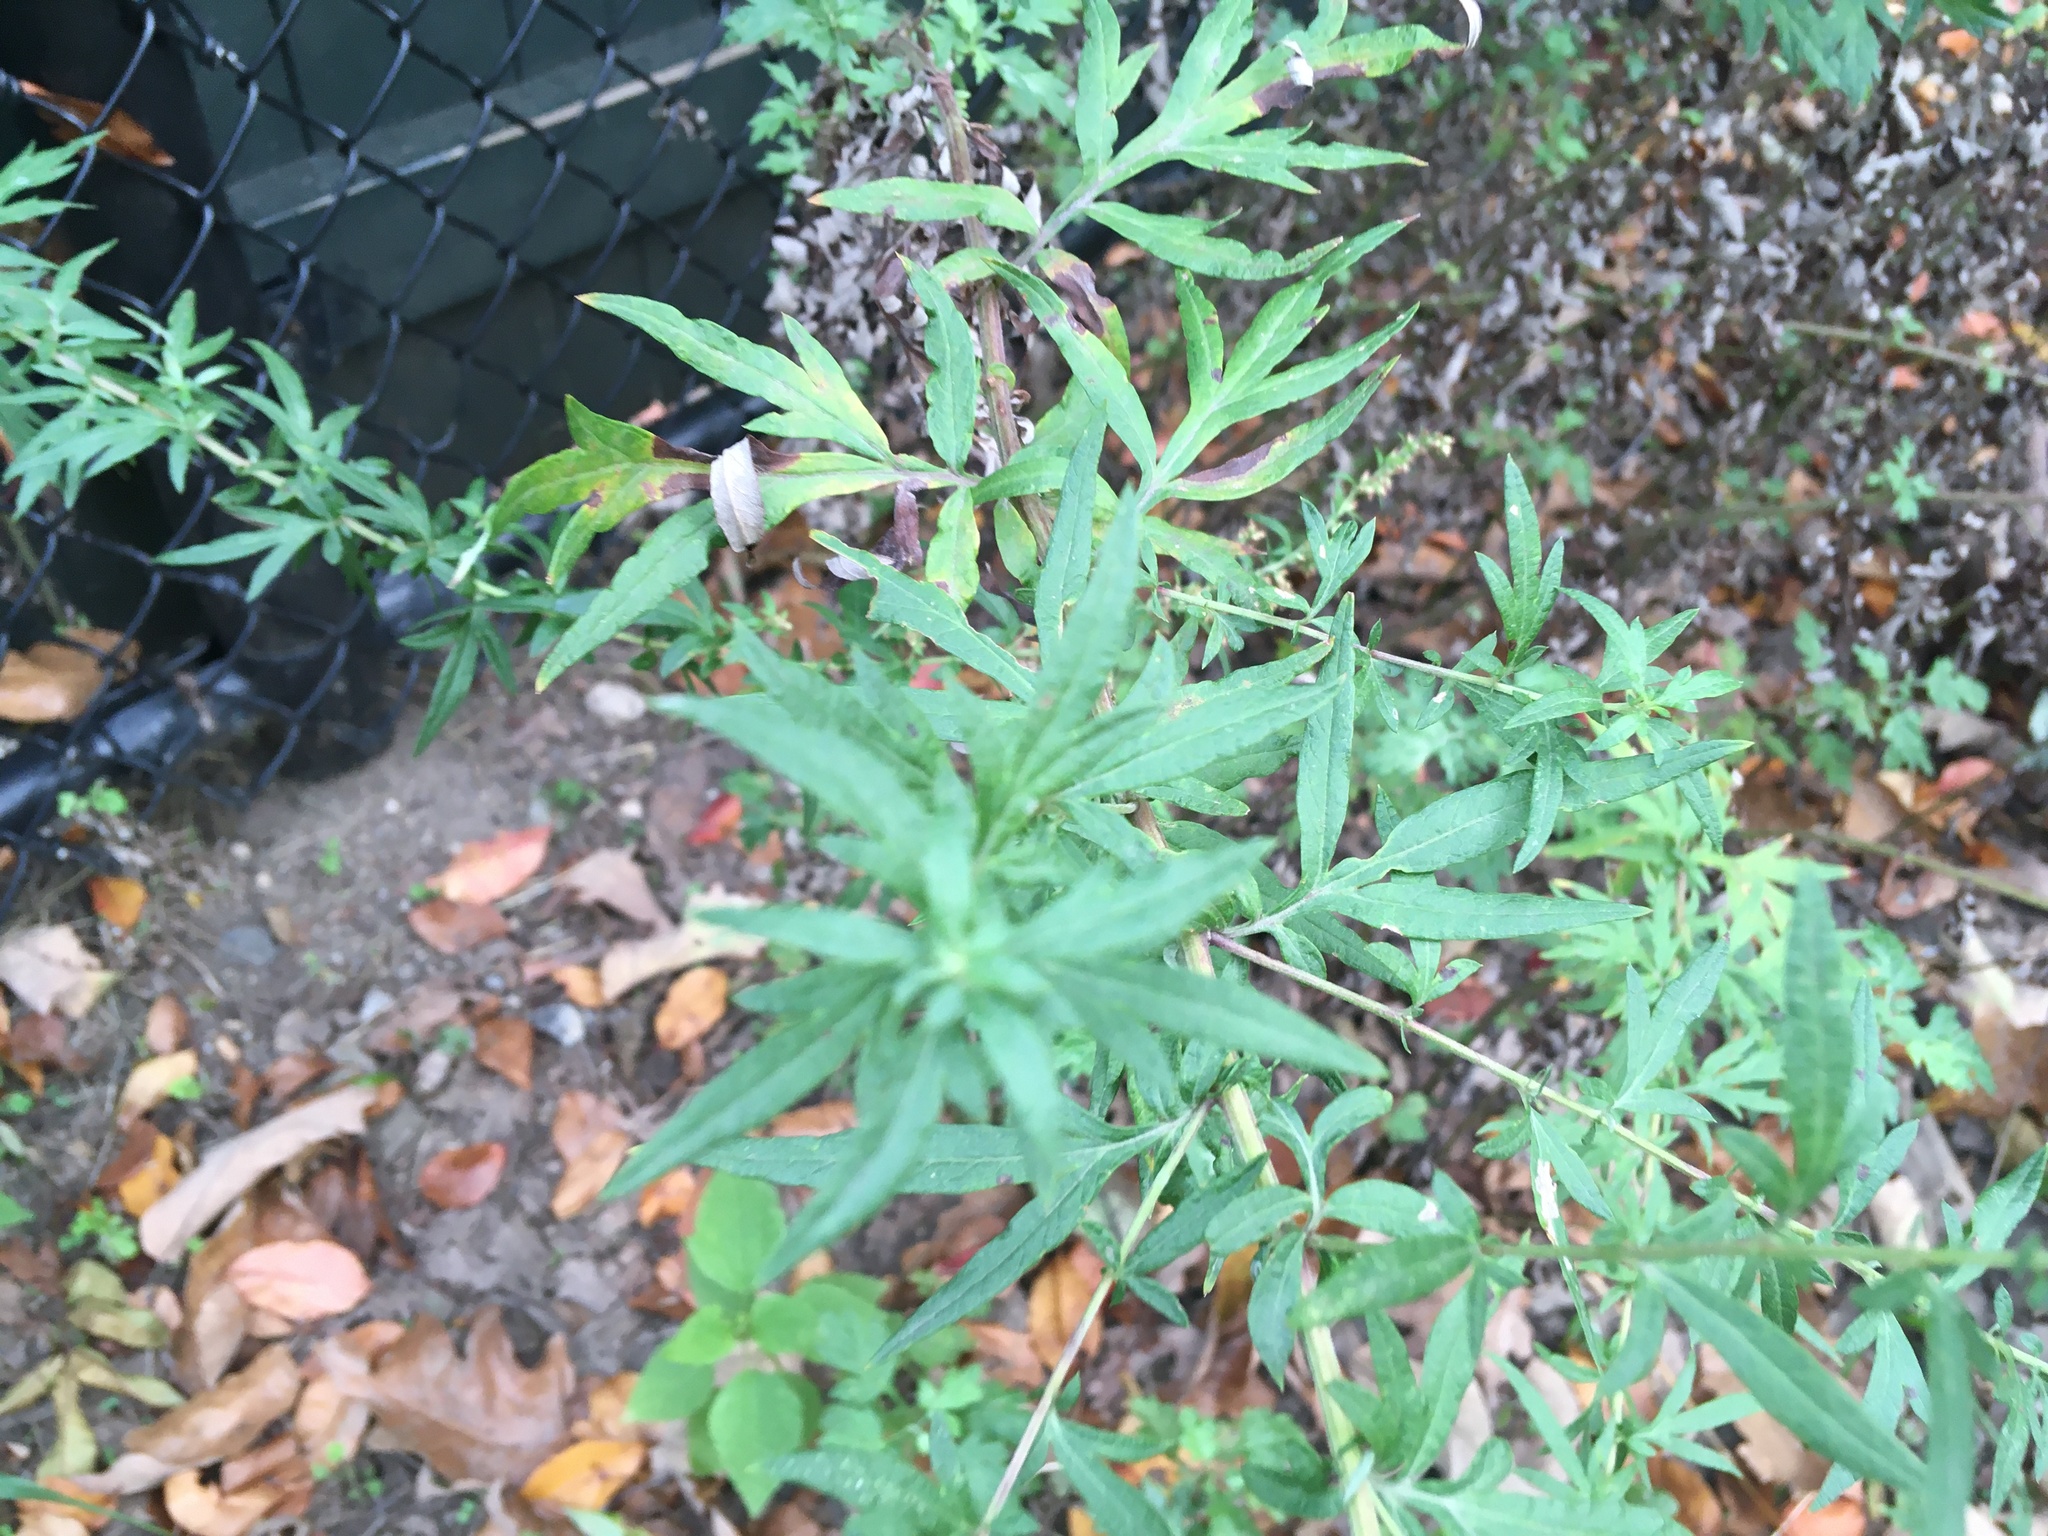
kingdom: Plantae
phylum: Tracheophyta
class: Magnoliopsida
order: Asterales
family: Asteraceae
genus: Artemisia
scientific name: Artemisia vulgaris
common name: Mugwort
